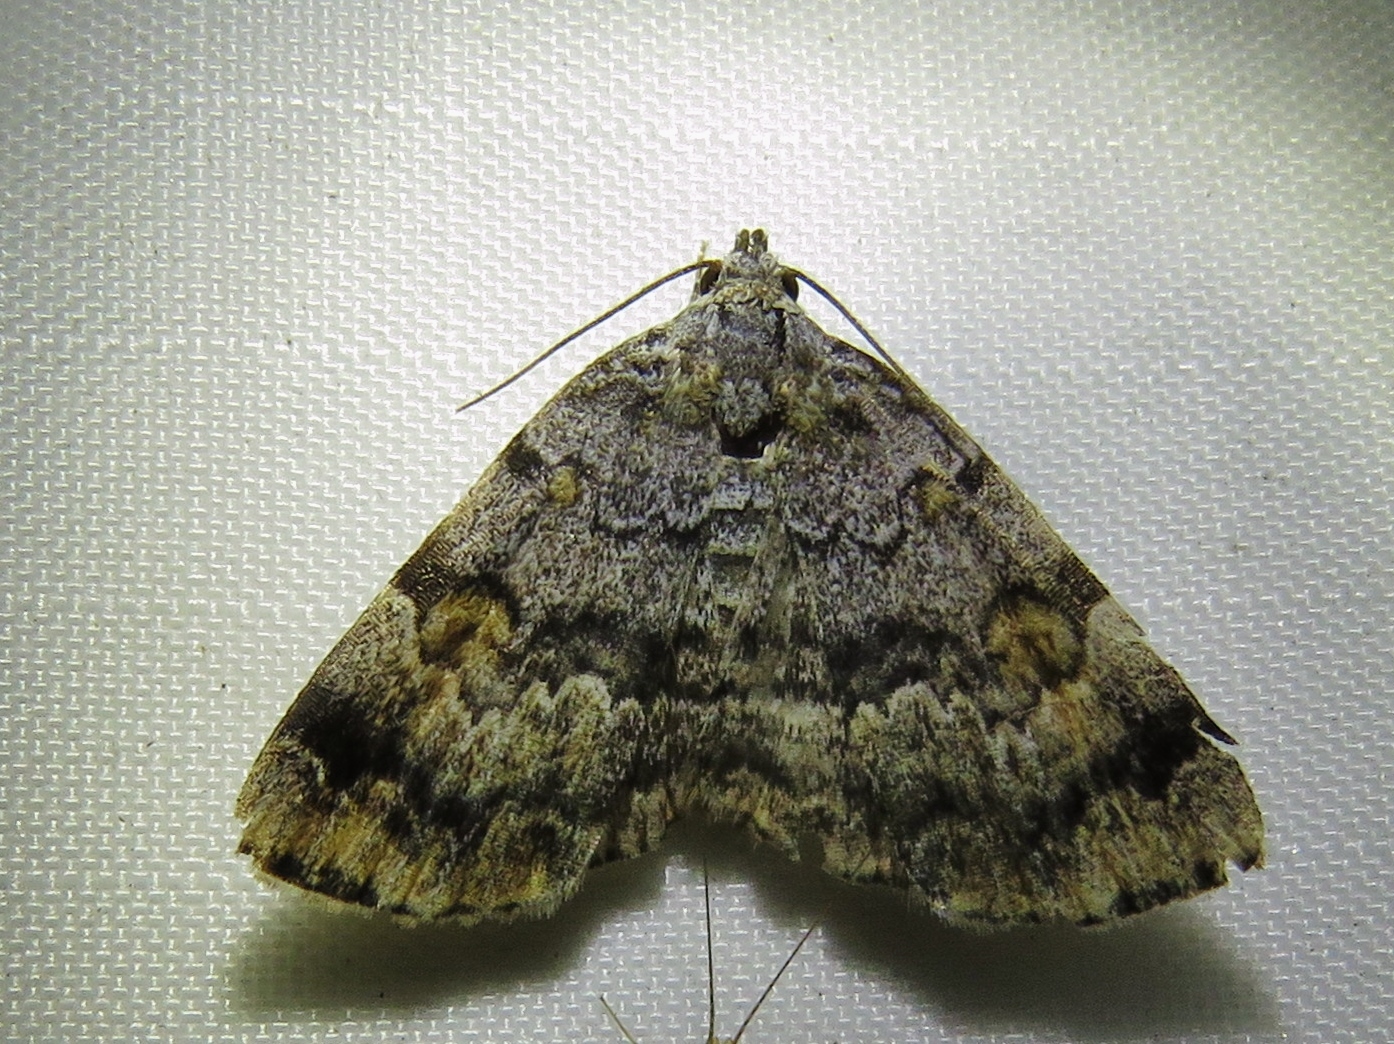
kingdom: Animalia
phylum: Arthropoda
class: Insecta
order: Lepidoptera
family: Erebidae
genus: Idia
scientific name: Idia americalis
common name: American idia moth
